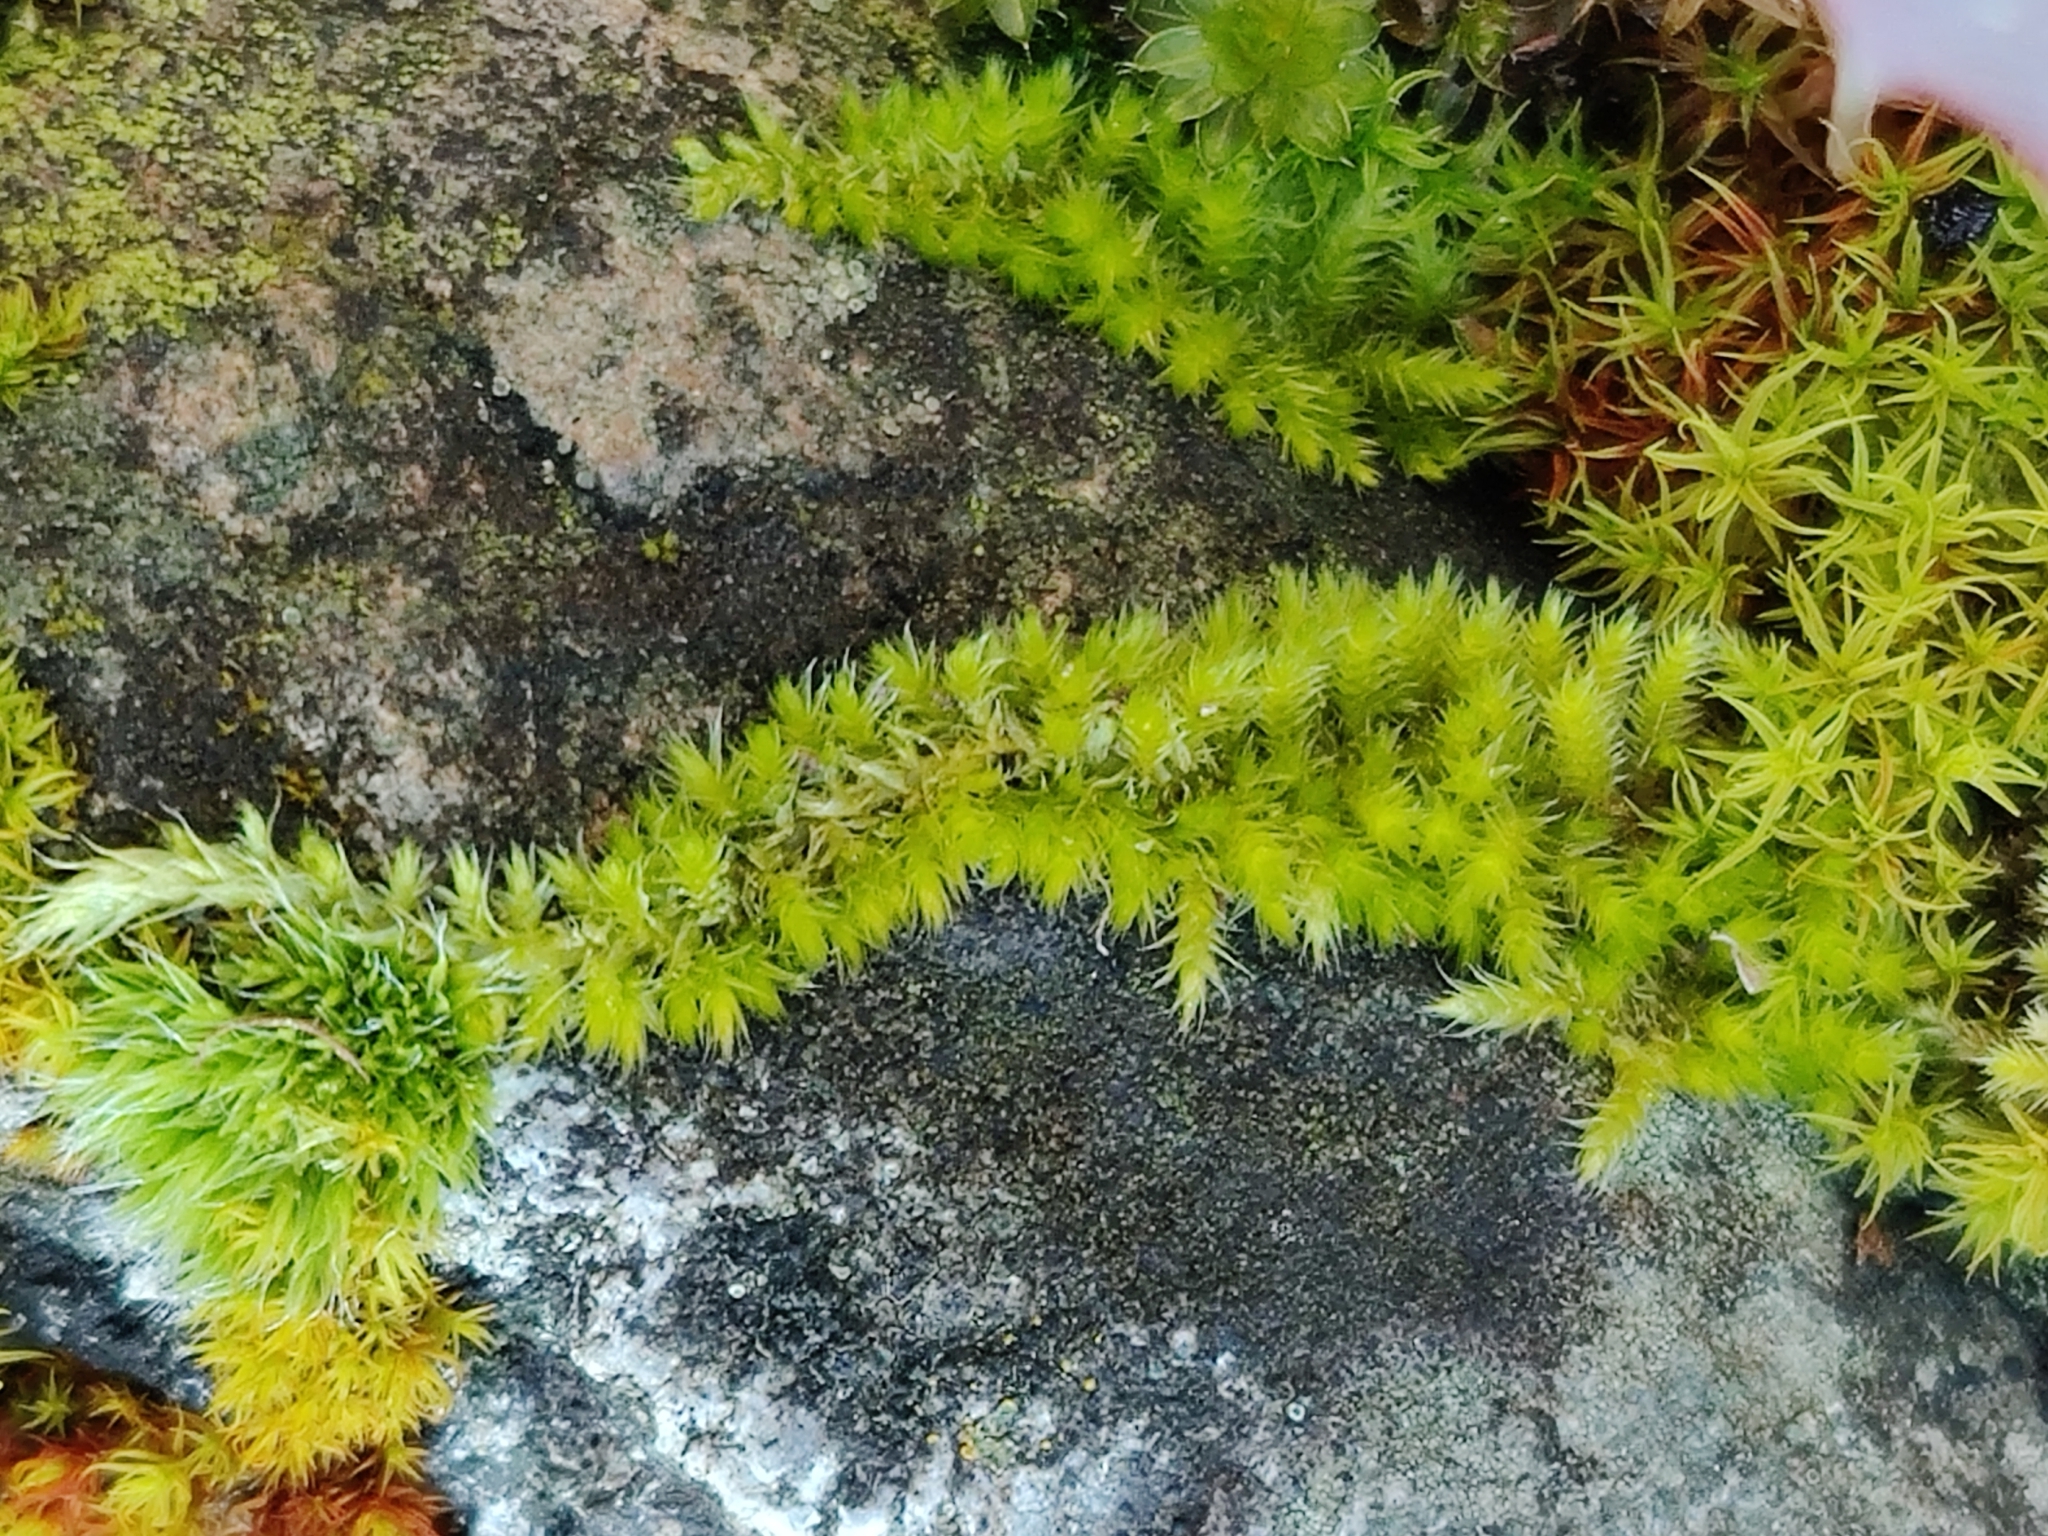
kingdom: Plantae
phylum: Bryophyta
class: Bryopsida
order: Hypnales
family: Brachytheciaceae
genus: Homalothecium
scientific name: Homalothecium nuttallii
